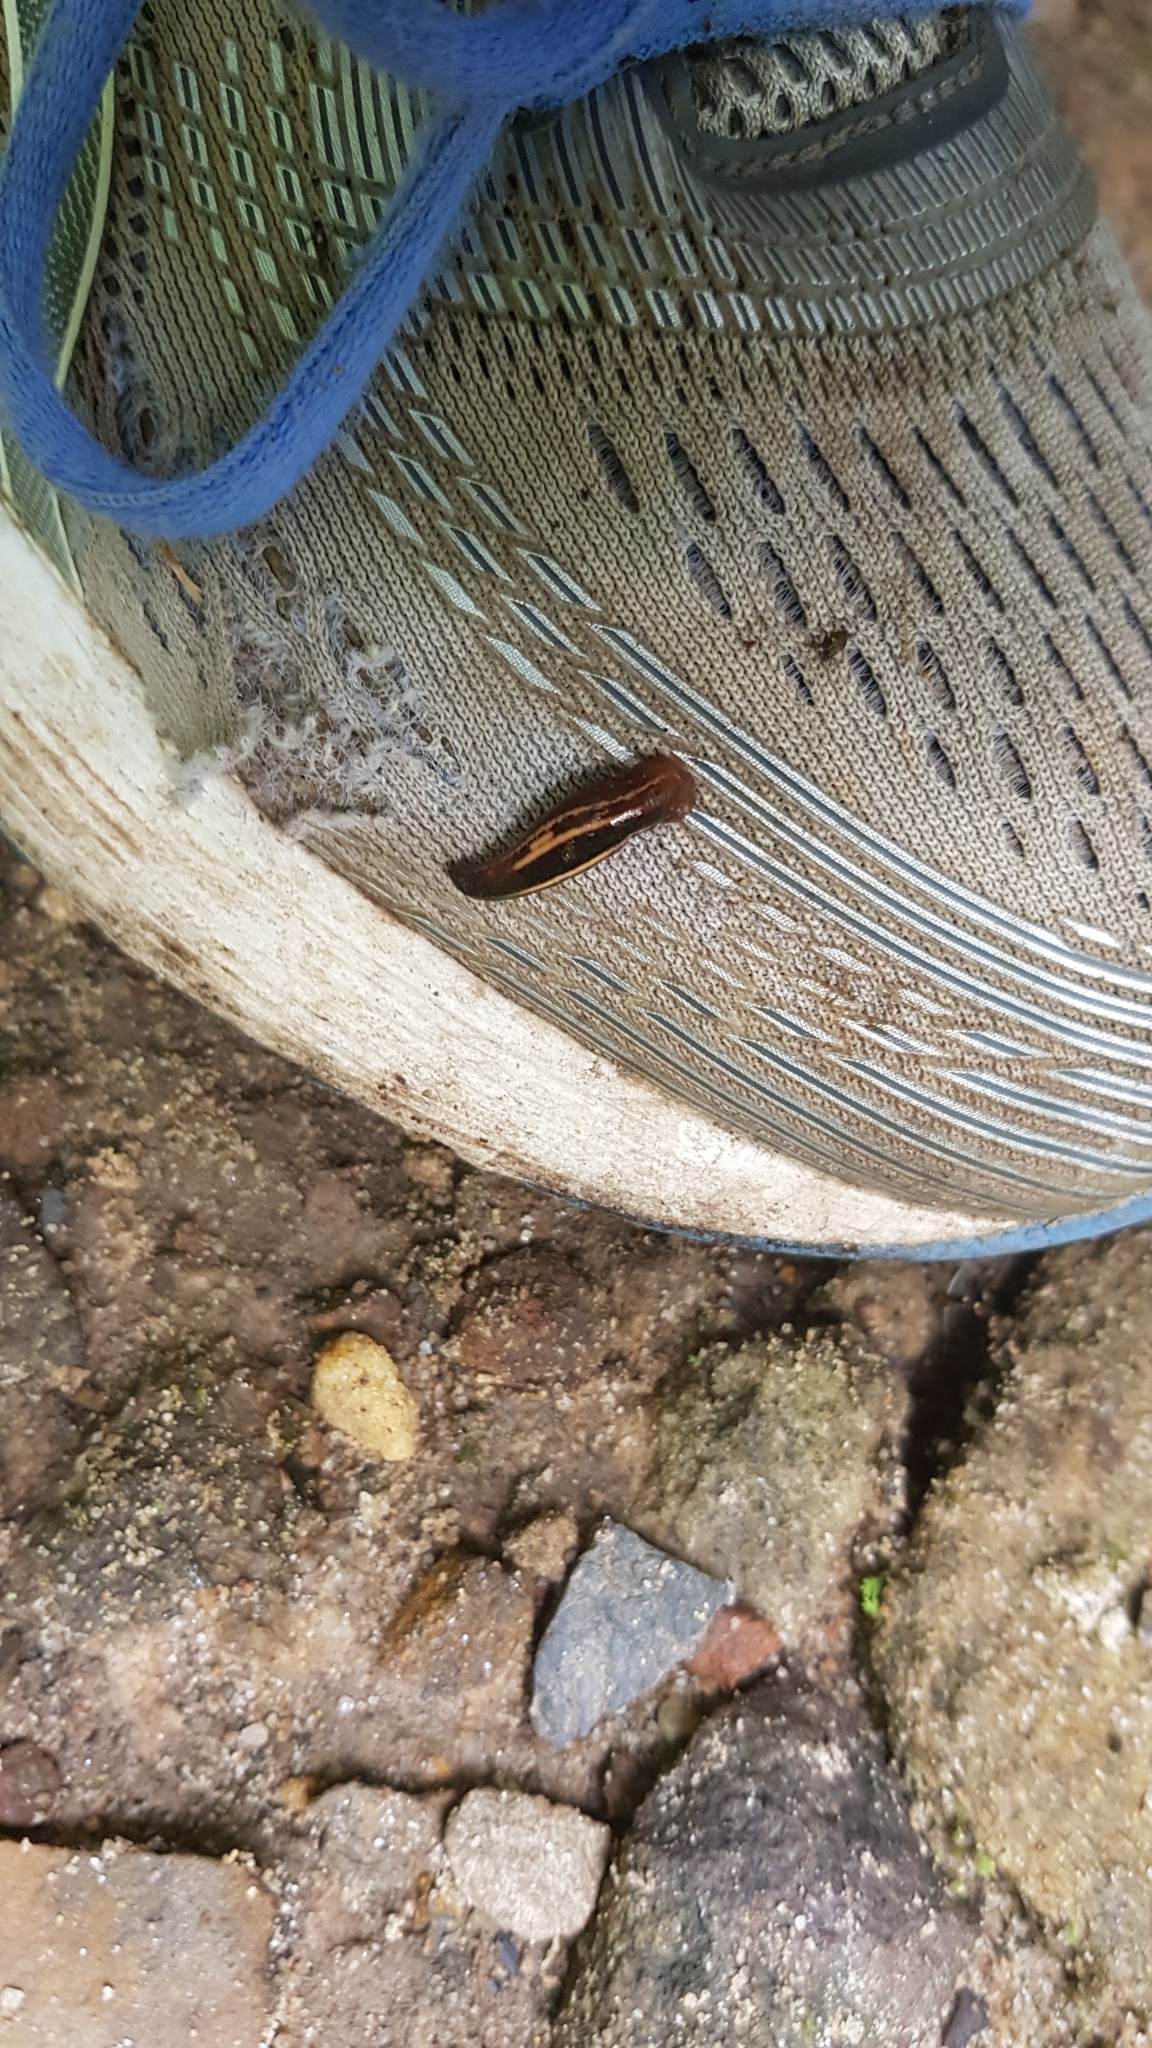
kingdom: Animalia
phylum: Annelida
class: Clitellata
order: Arhynchobdellida
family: Haemadipsidae
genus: Chtonobdella
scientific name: Chtonobdella limbata
